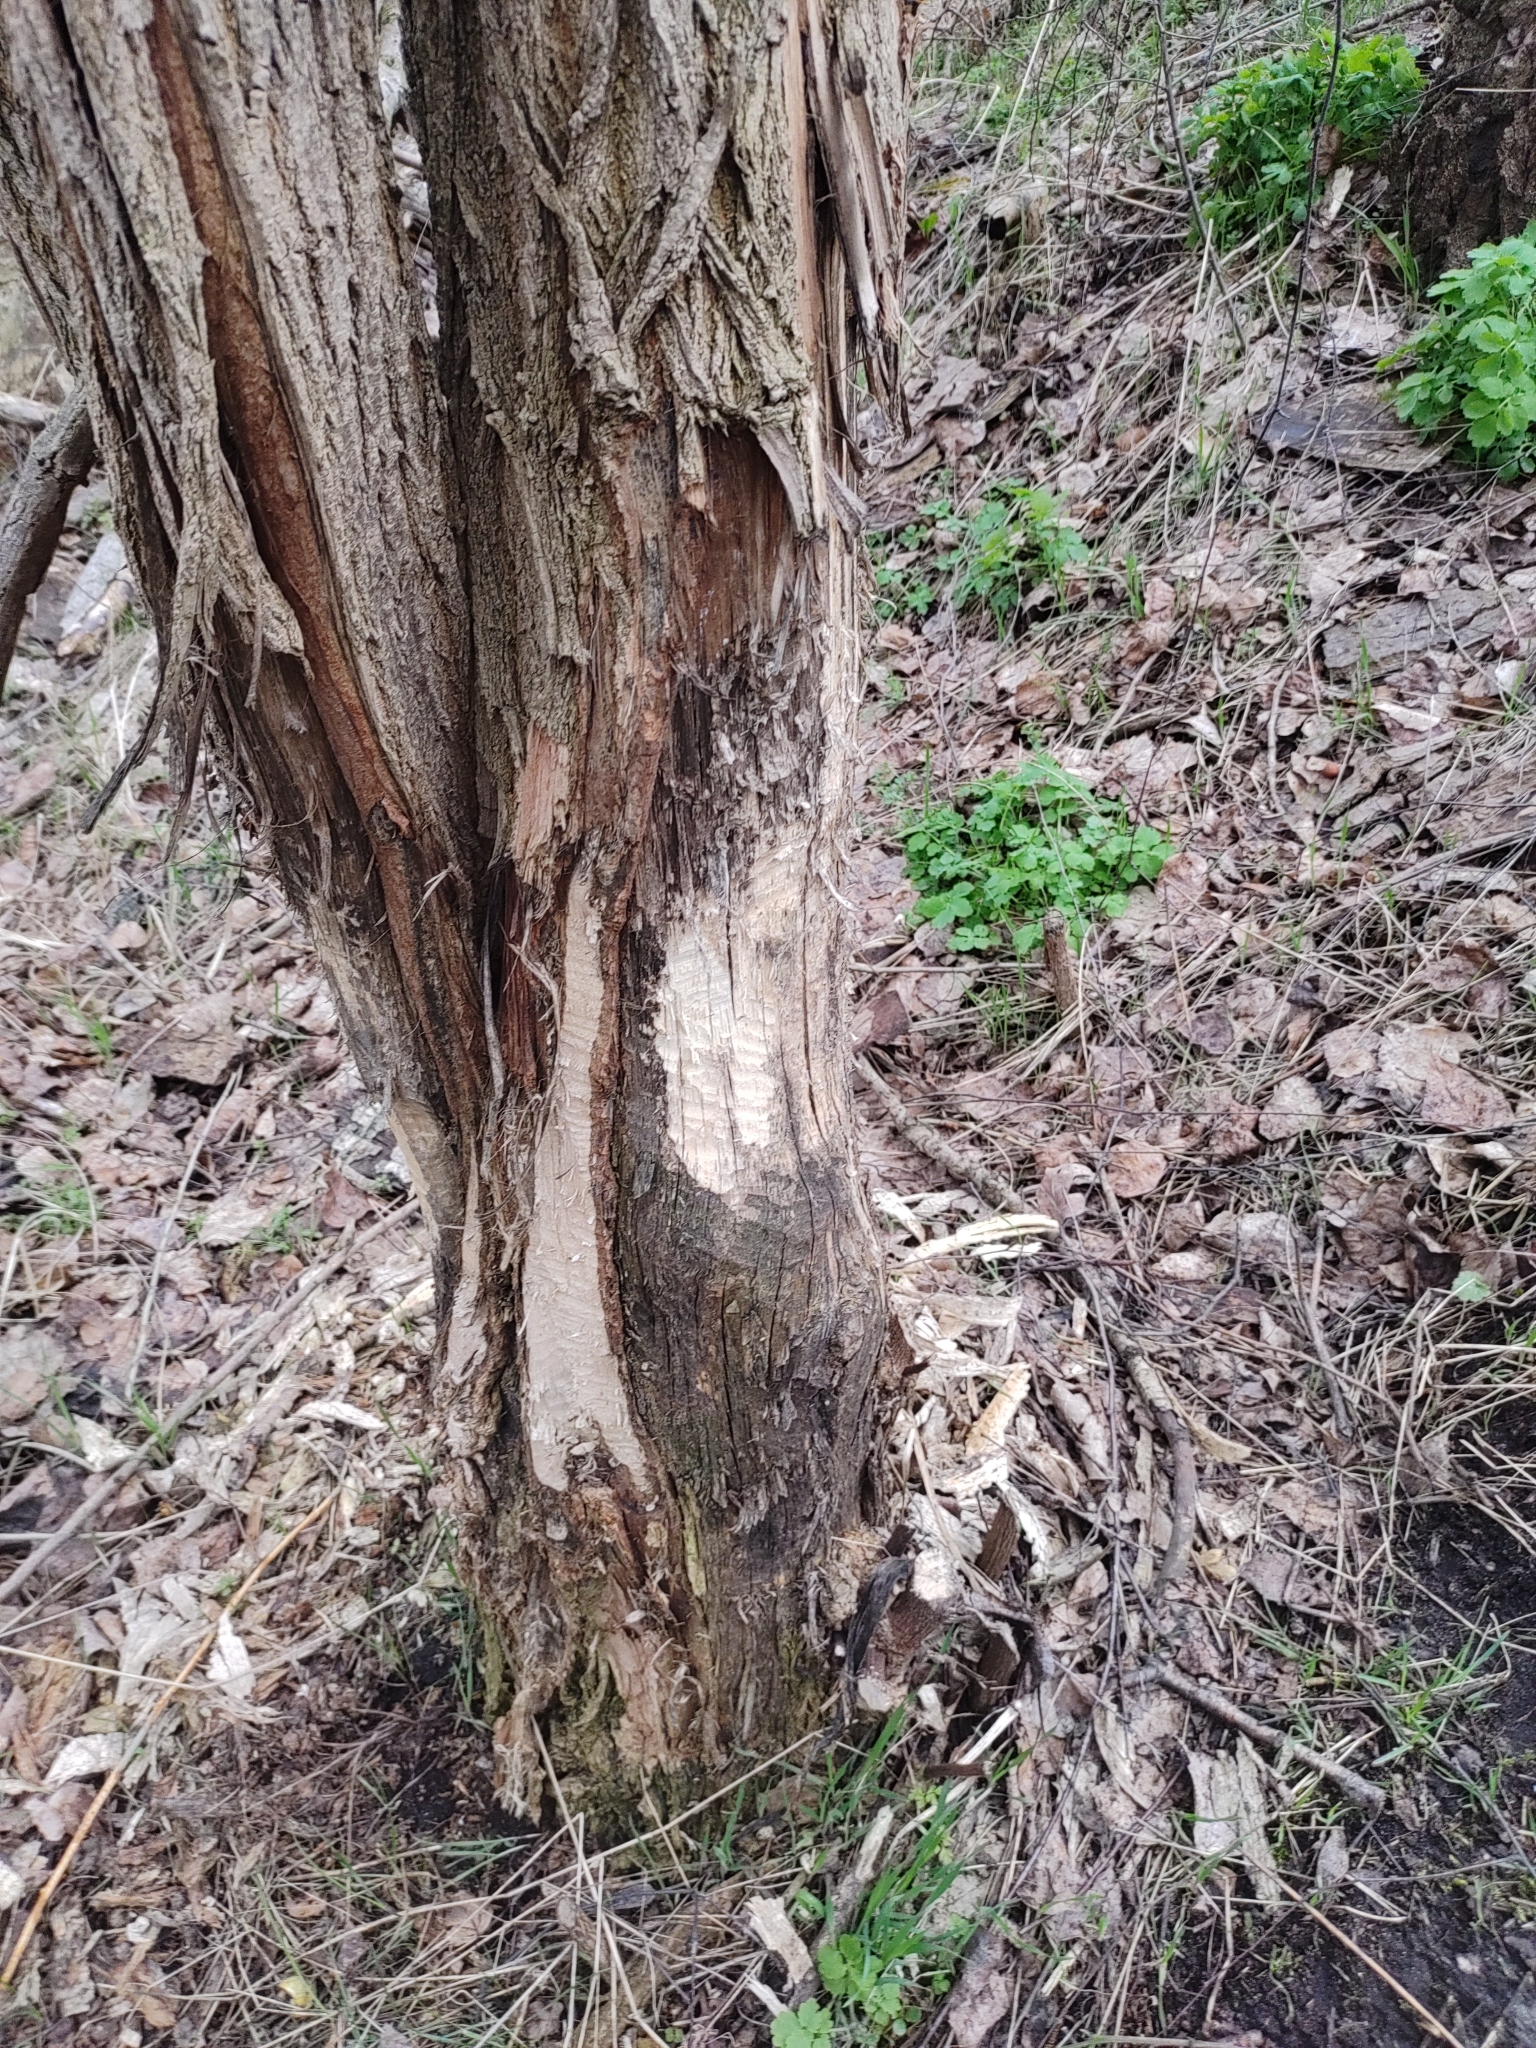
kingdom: Animalia
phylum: Chordata
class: Mammalia
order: Rodentia
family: Castoridae
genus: Castor
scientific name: Castor fiber
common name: Eurasian beaver
